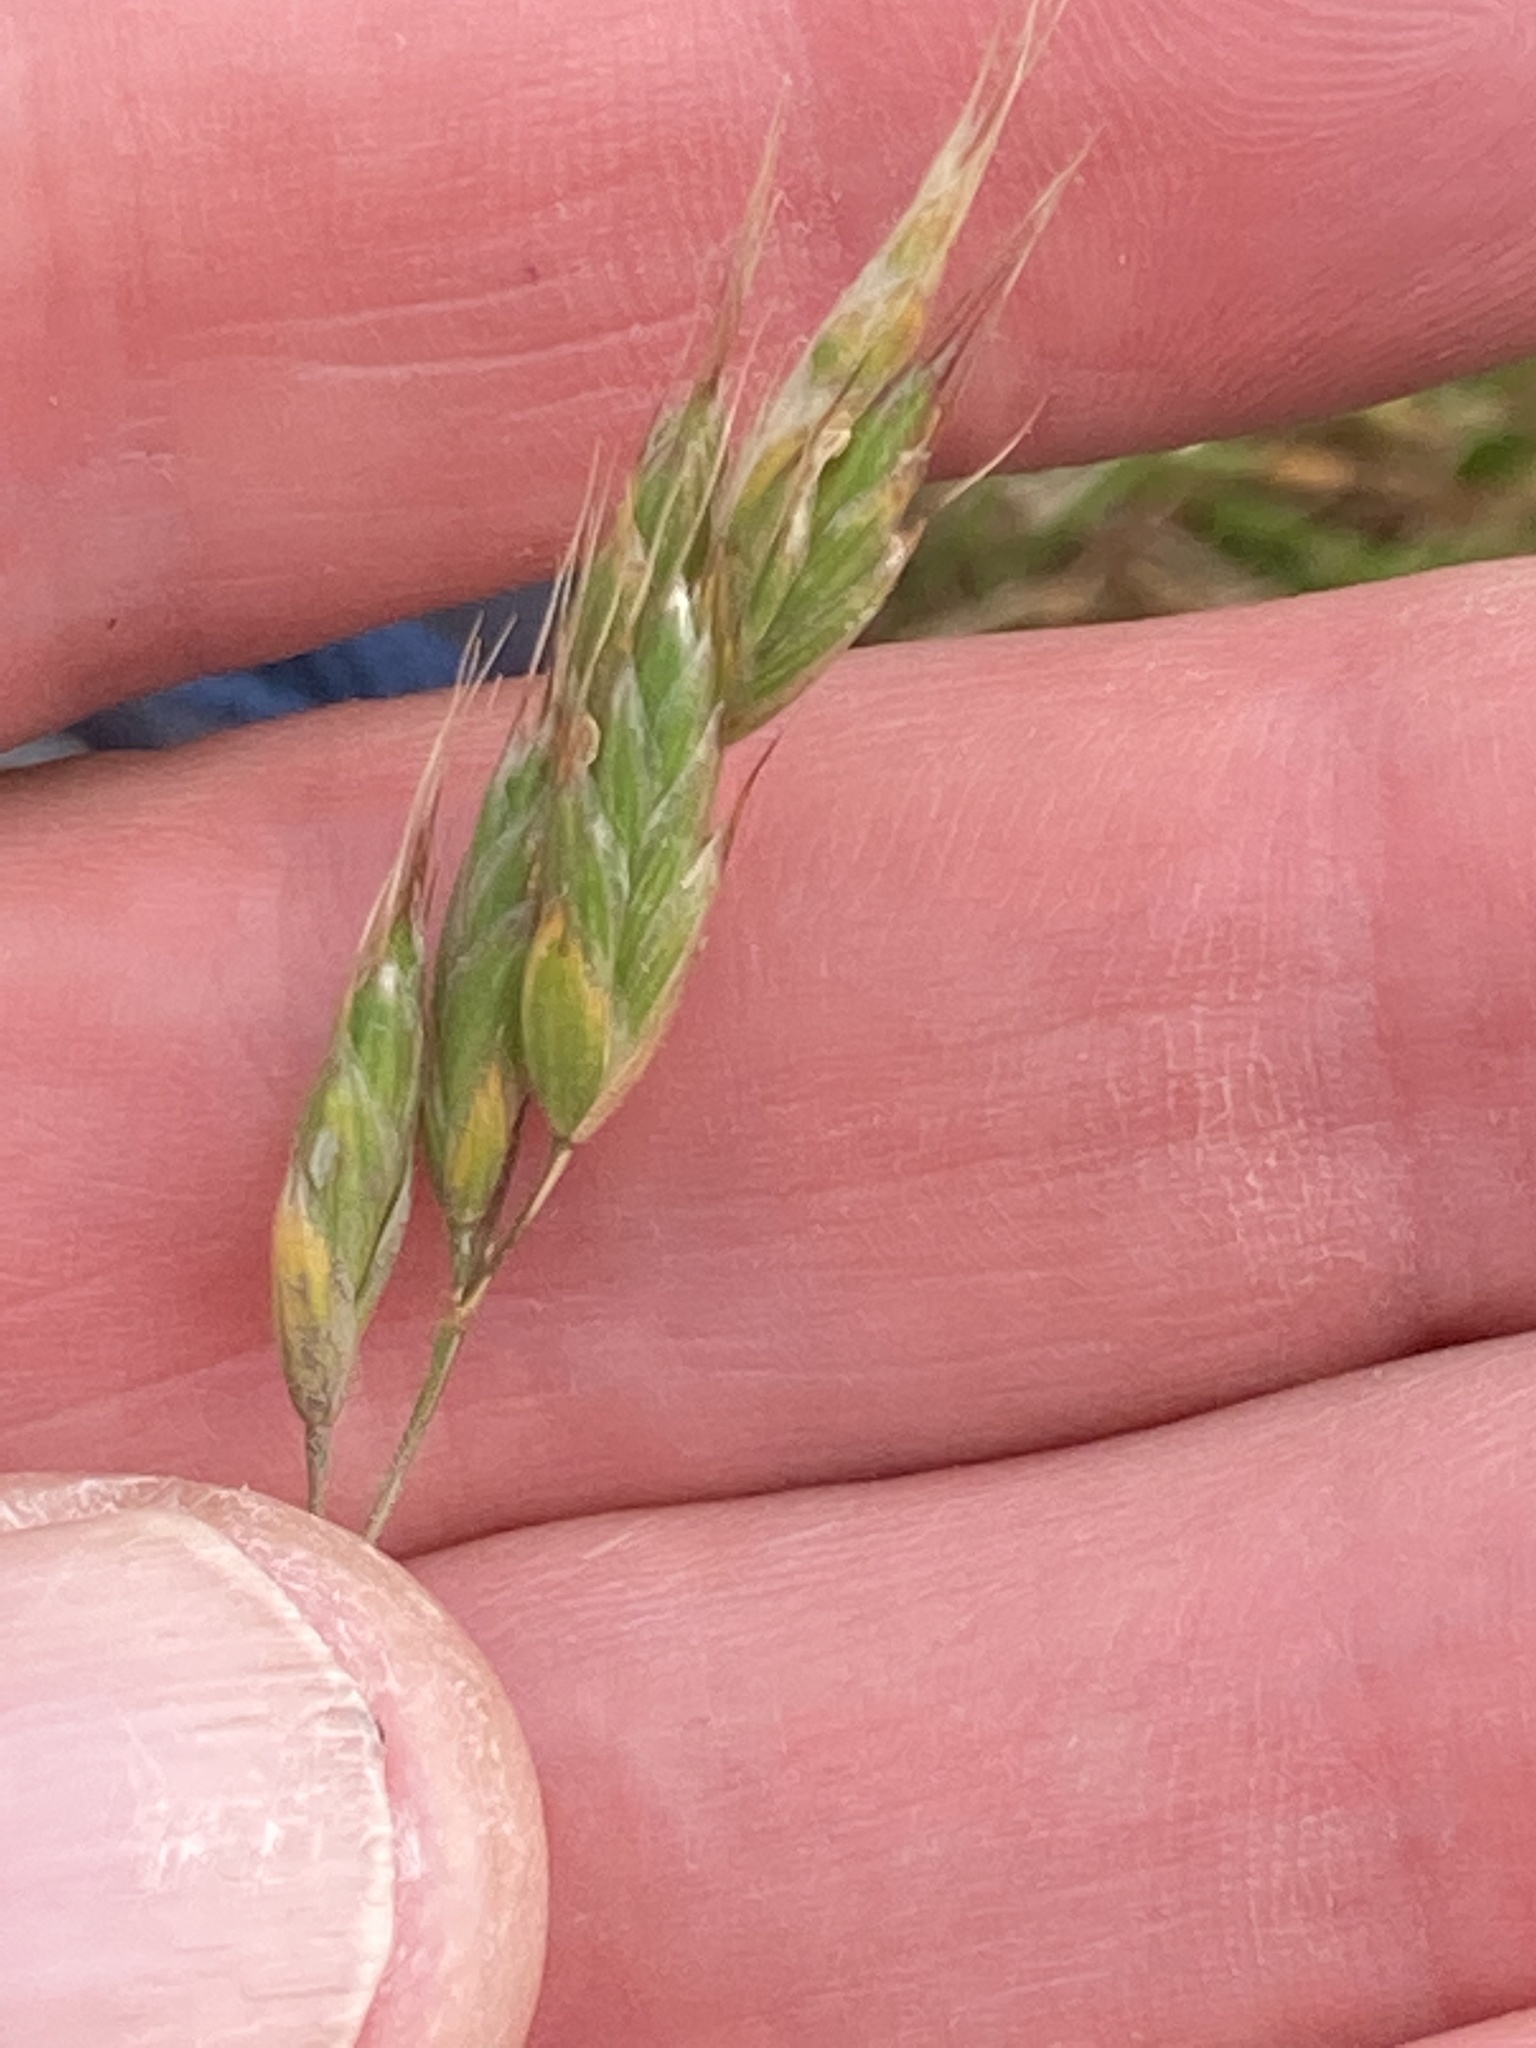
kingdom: Plantae
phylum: Tracheophyta
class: Liliopsida
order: Poales
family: Poaceae
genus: Bromus
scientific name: Bromus hordeaceus
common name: Soft brome
